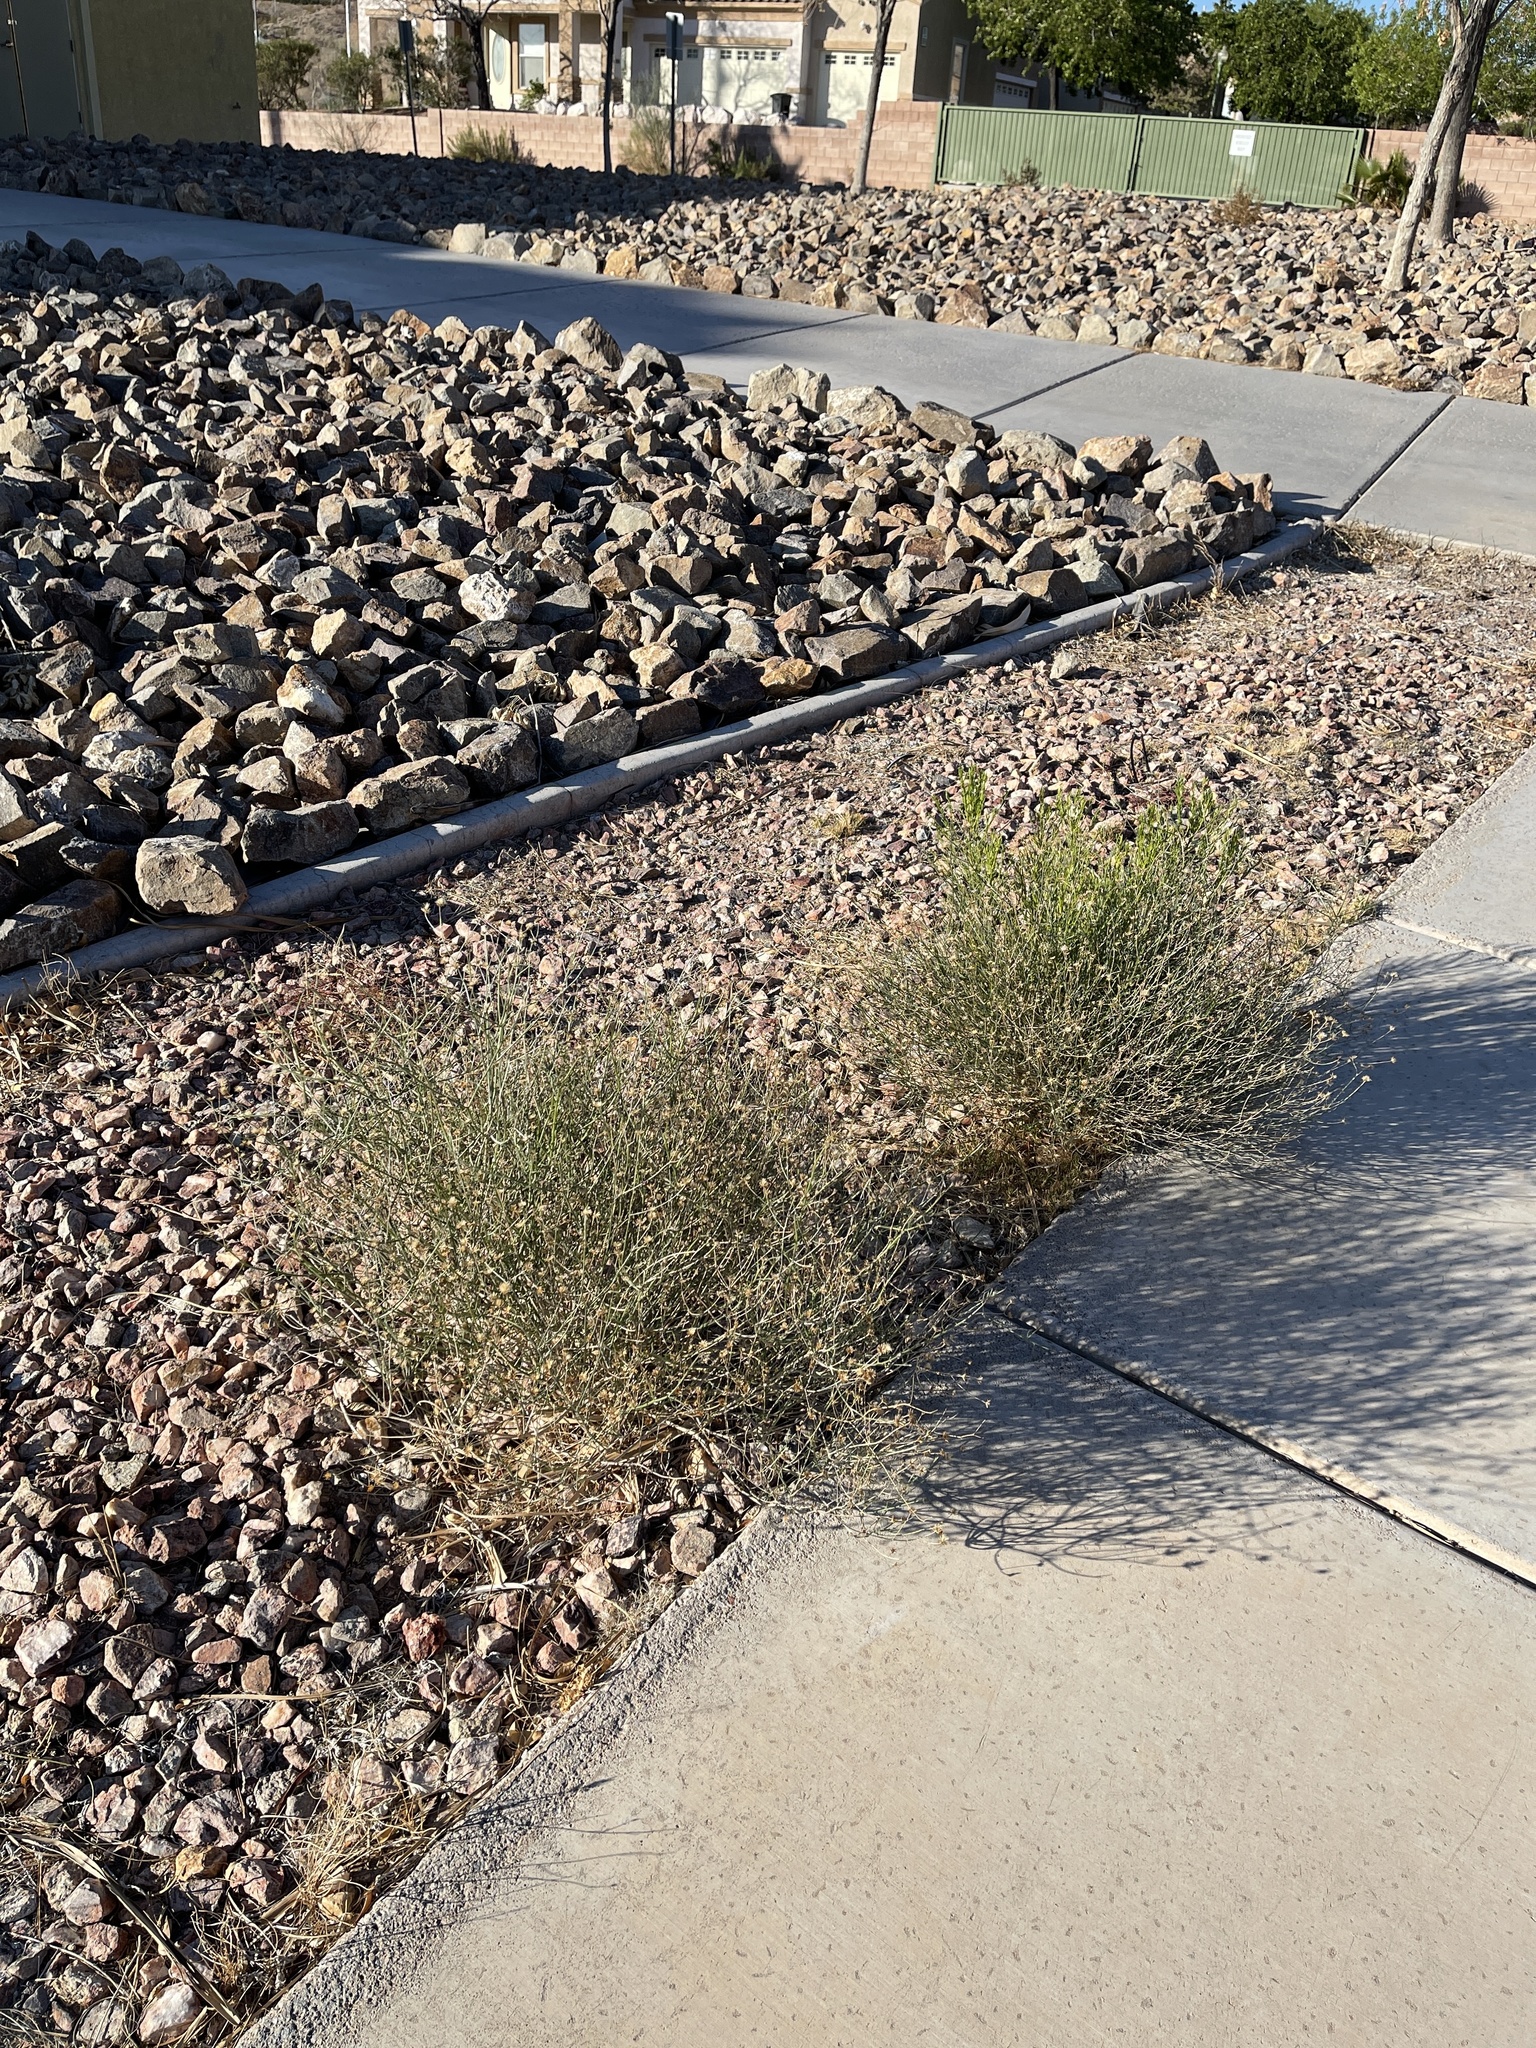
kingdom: Plantae
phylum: Tracheophyta
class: Magnoliopsida
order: Asterales
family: Asteraceae
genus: Porophyllum
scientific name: Porophyllum gracile
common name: Odora
